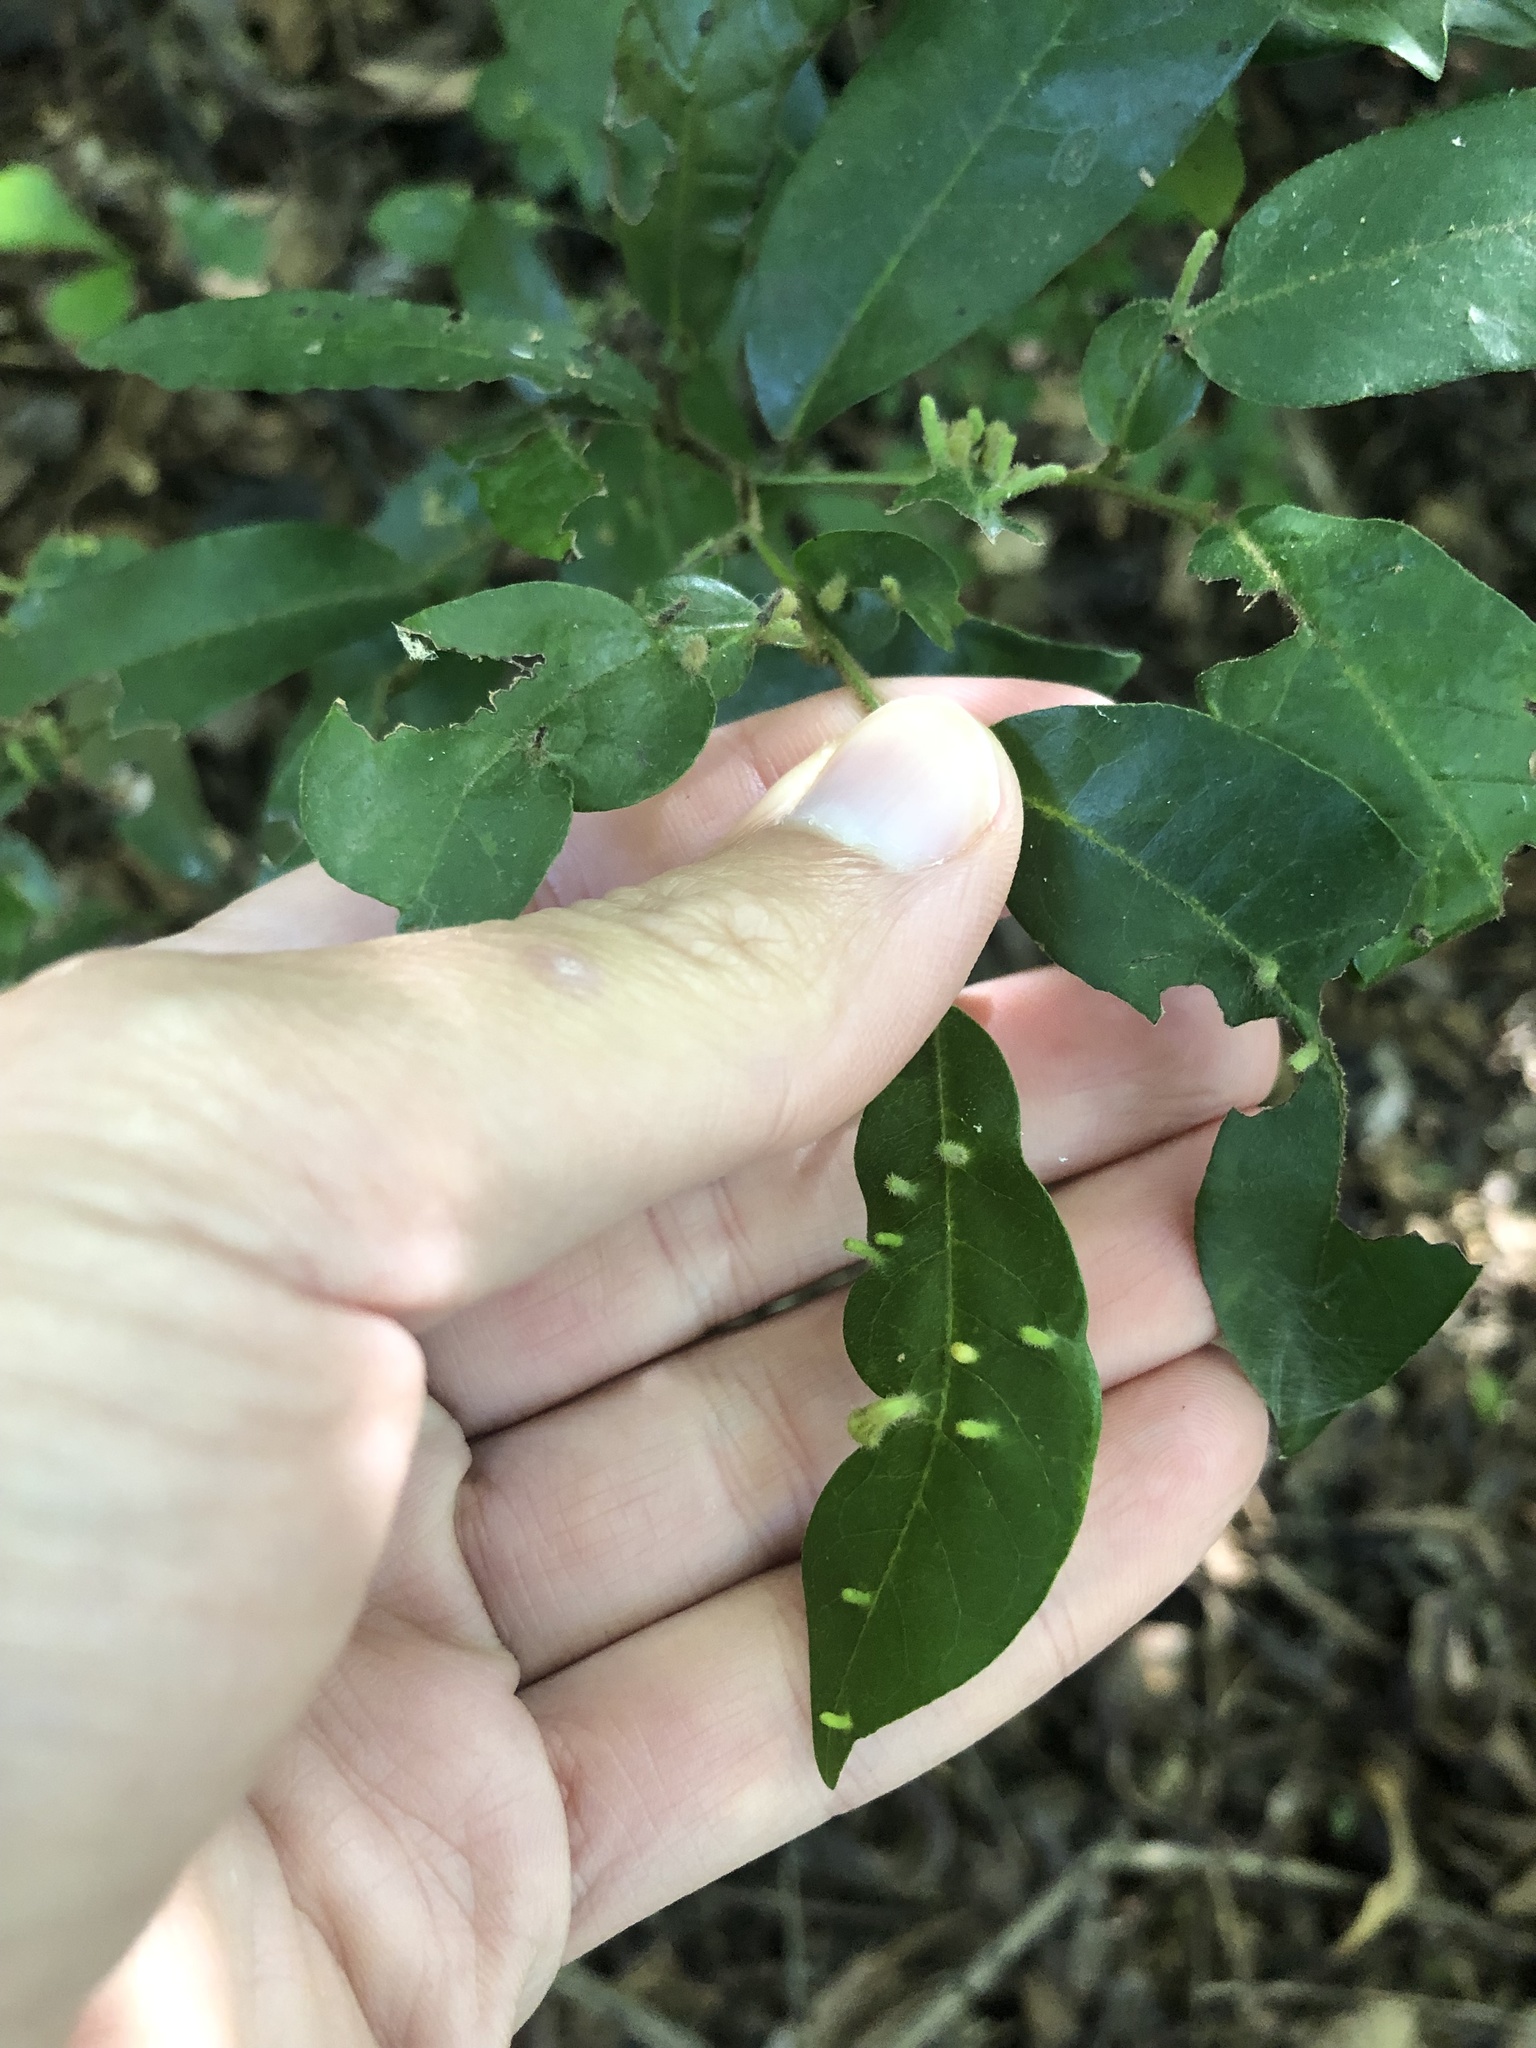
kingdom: Plantae
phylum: Tracheophyta
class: Magnoliopsida
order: Magnoliales
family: Annonaceae
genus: Monanthotaxis
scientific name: Monanthotaxis caffra
